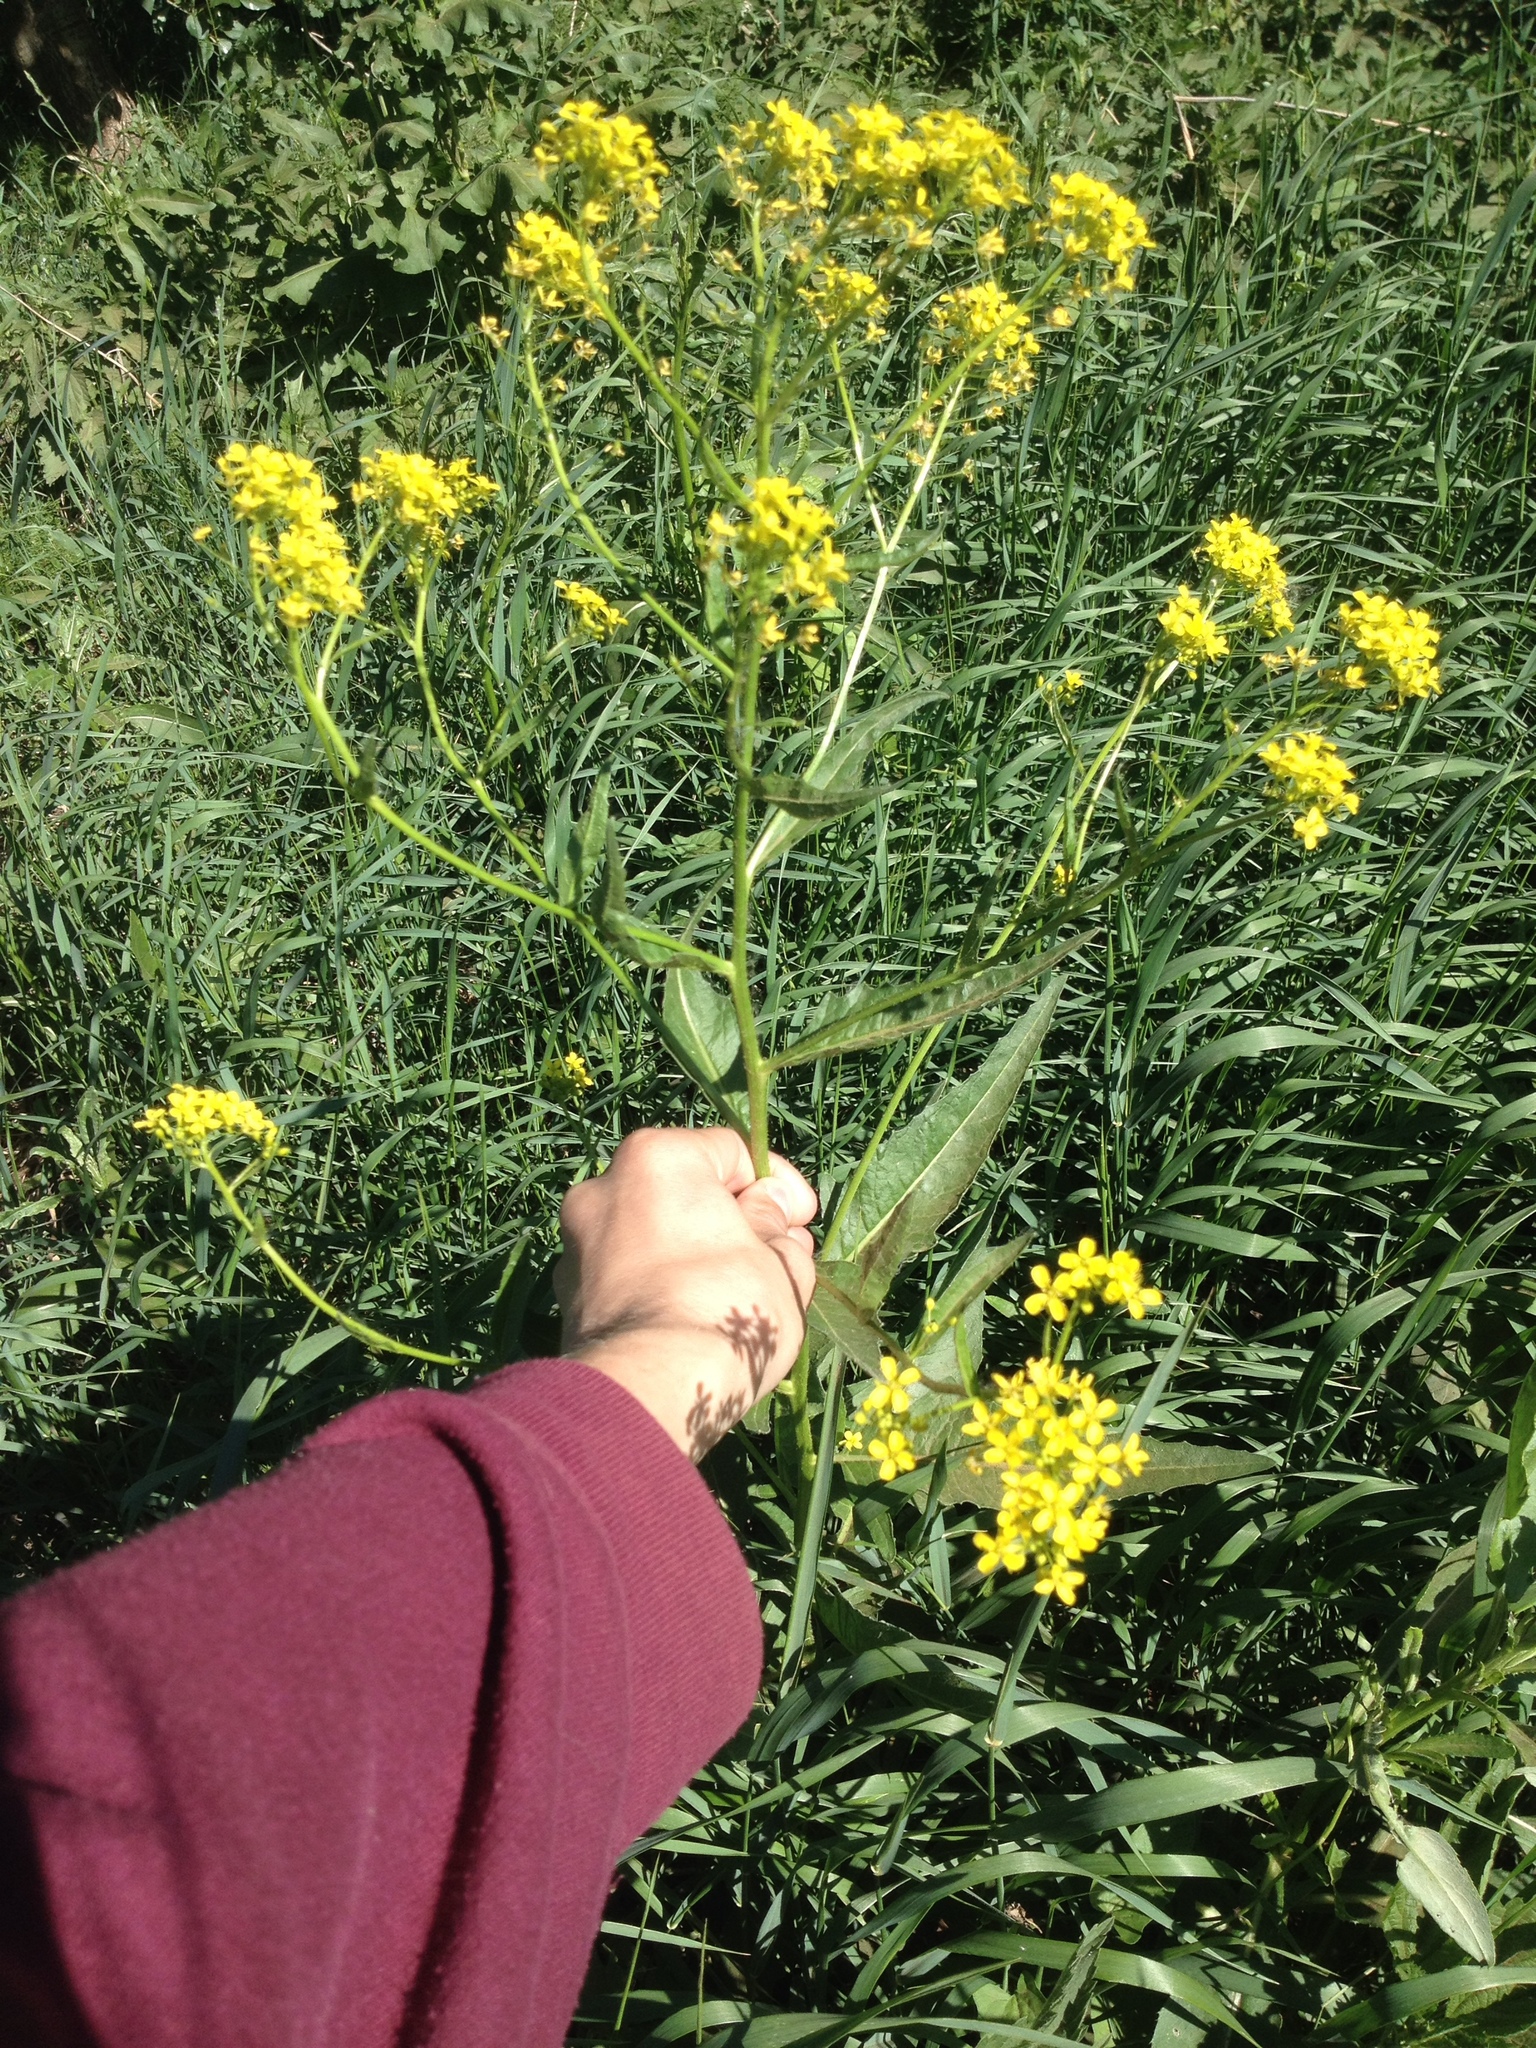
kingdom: Plantae
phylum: Tracheophyta
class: Magnoliopsida
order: Brassicales
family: Brassicaceae
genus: Bunias
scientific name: Bunias orientalis
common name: Warty-cabbage
